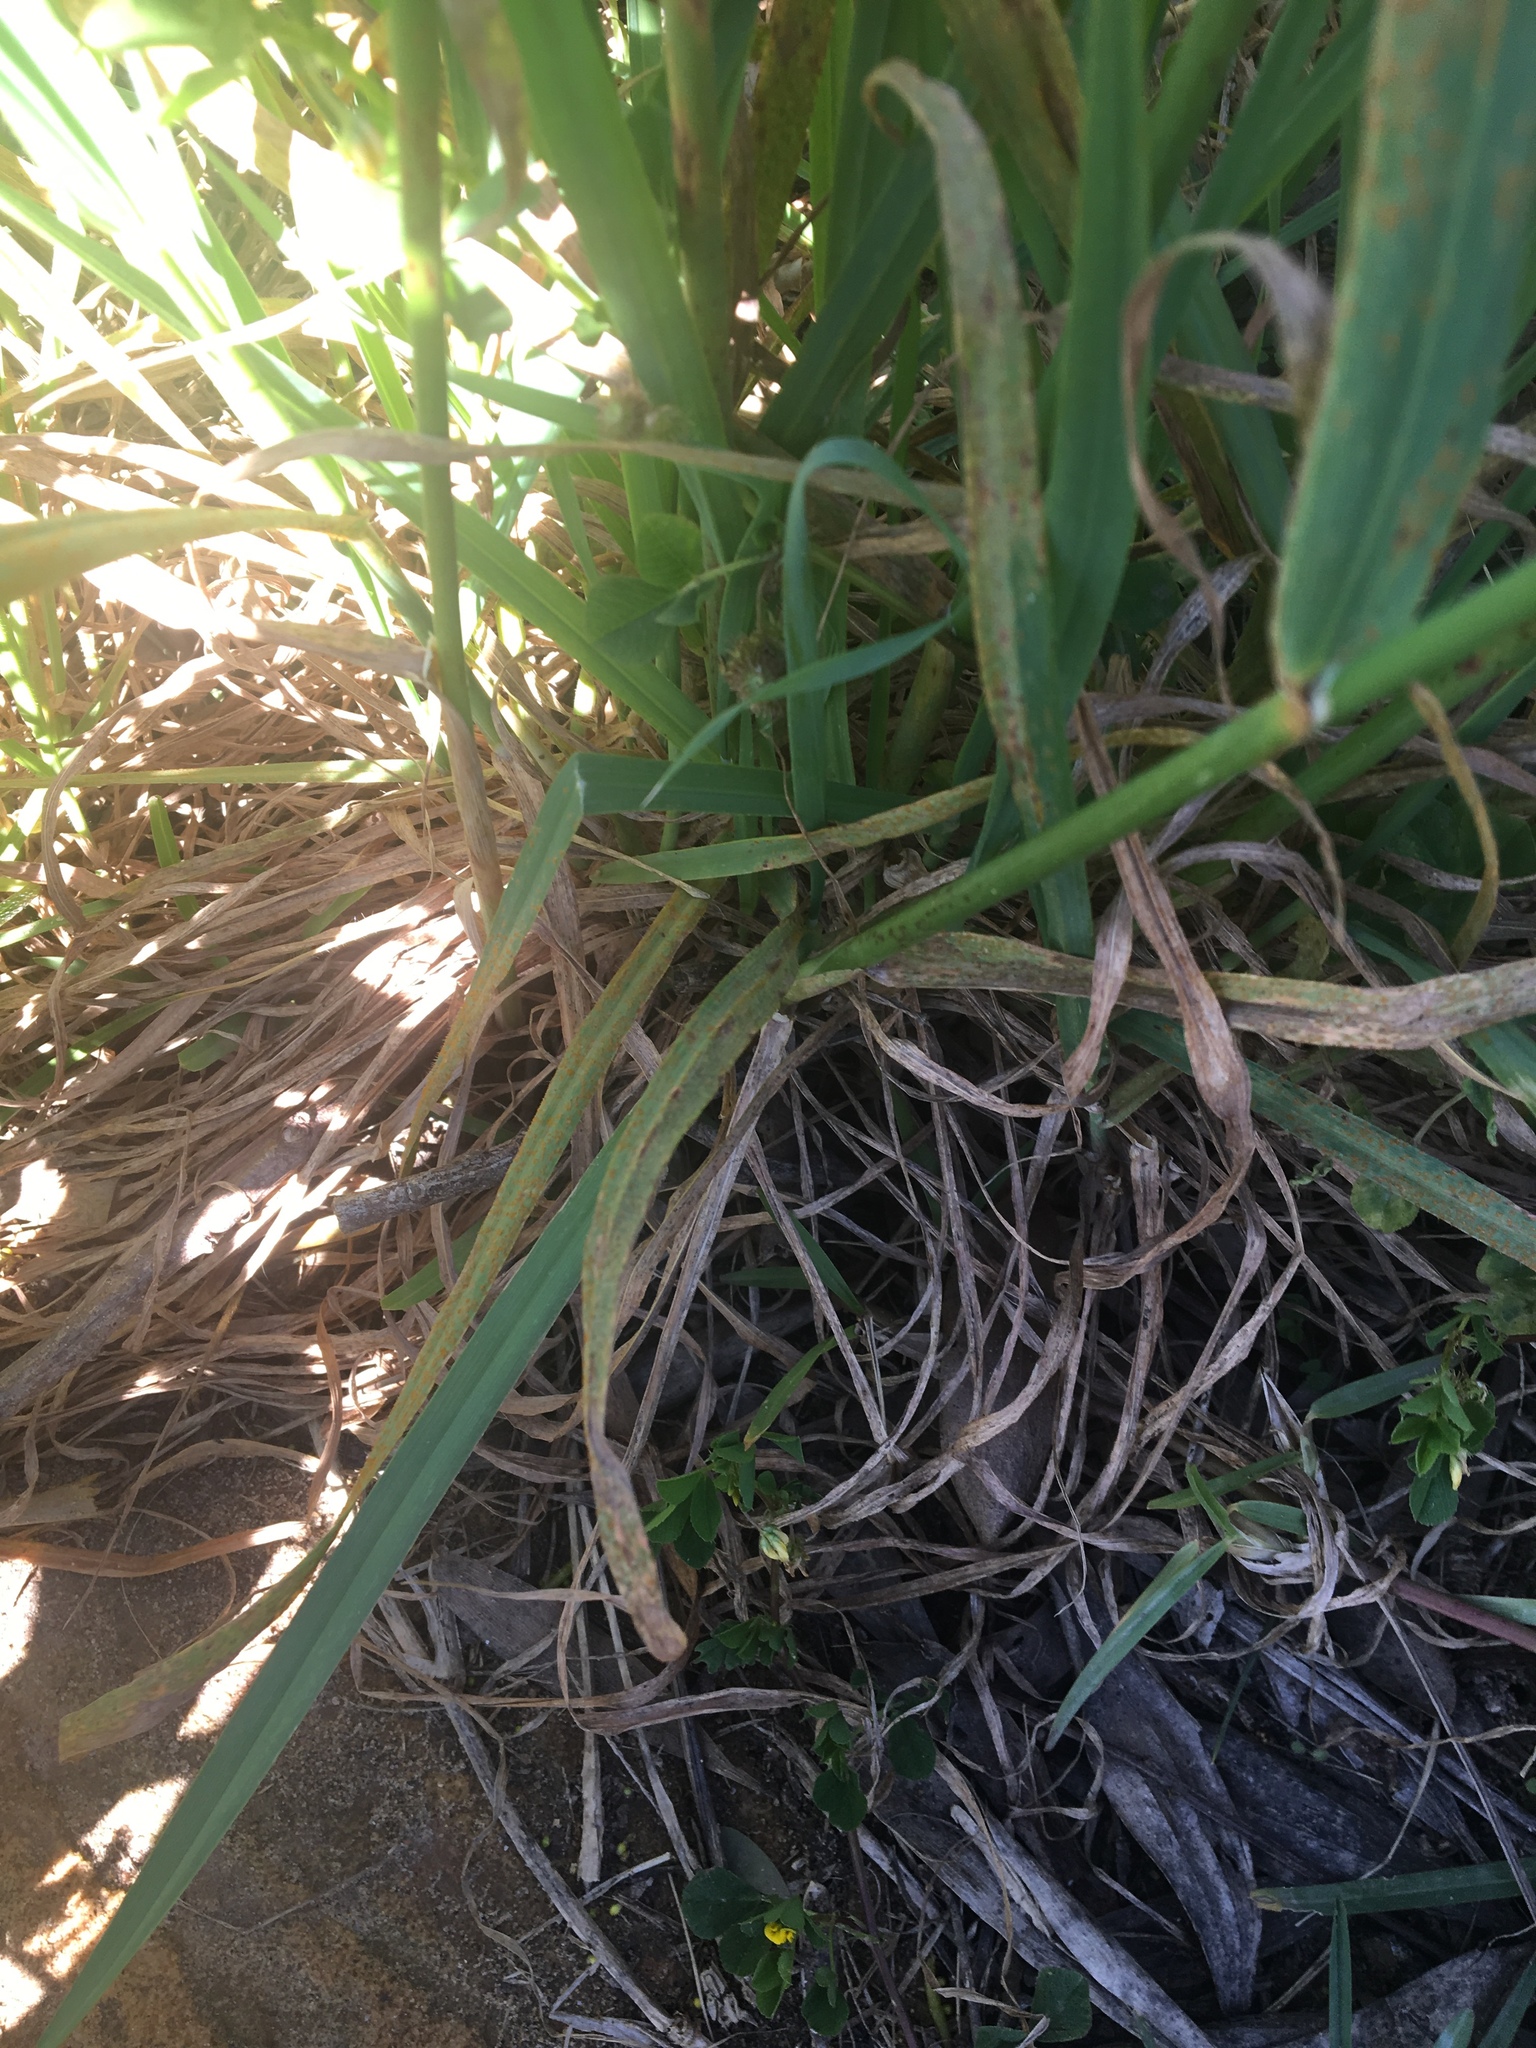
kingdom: Plantae
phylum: Tracheophyta
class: Liliopsida
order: Poales
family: Poaceae
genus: Avena
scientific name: Avena barbata
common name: Slender oat
